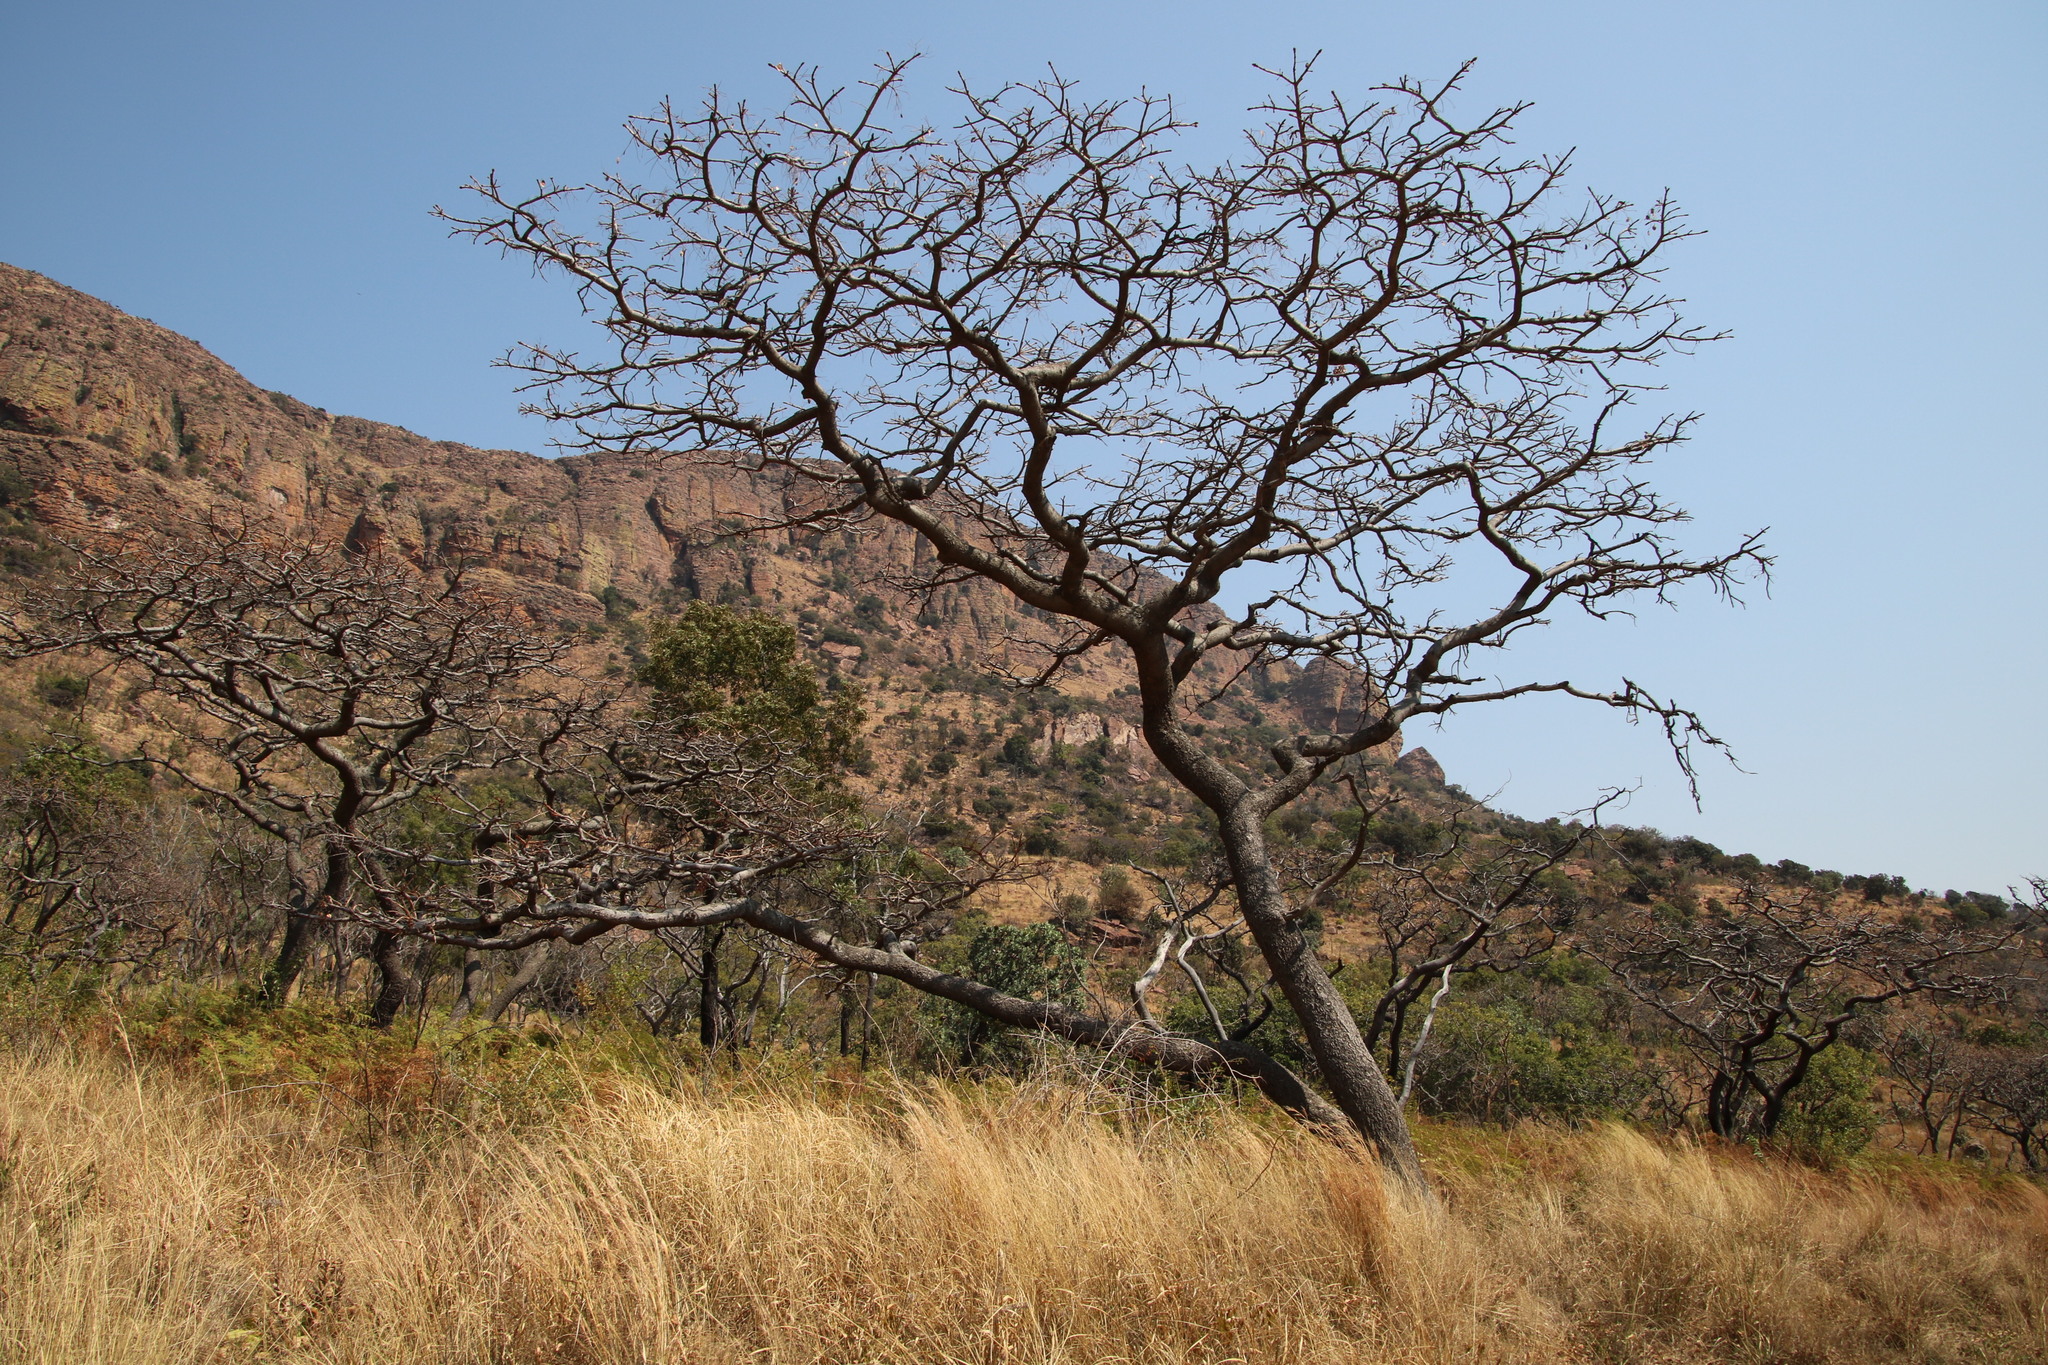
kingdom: Plantae
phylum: Tracheophyta
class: Magnoliopsida
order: Fabales
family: Fabaceae
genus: Burkea
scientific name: Burkea africana
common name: Mkalati tree
